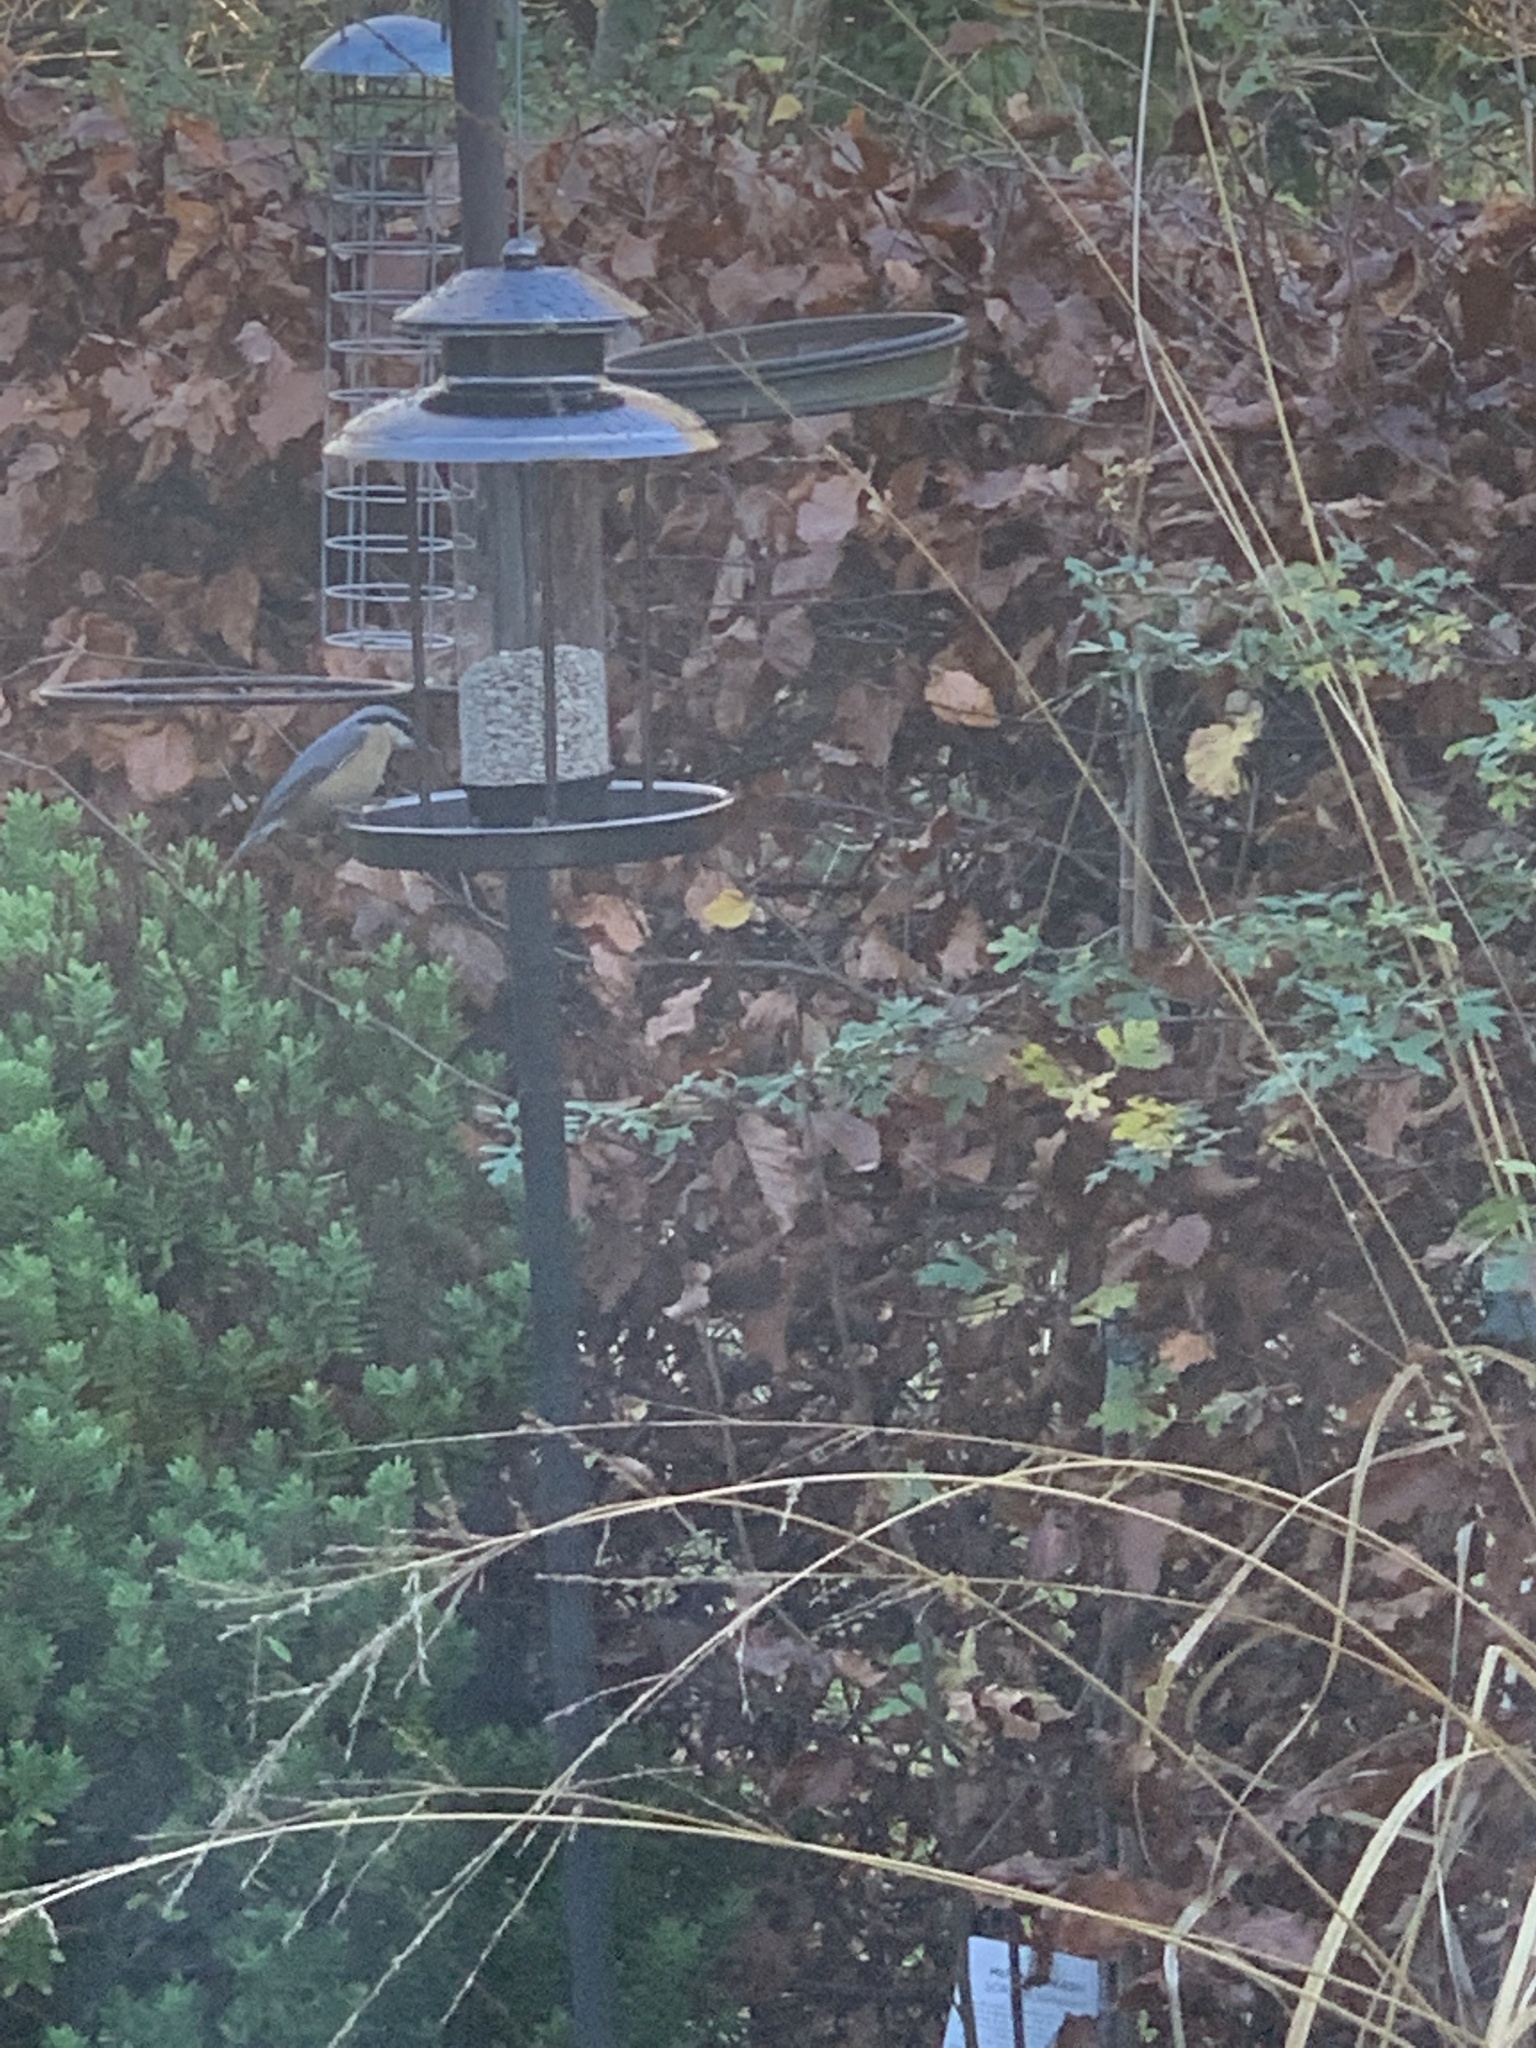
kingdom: Animalia
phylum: Chordata
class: Aves
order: Passeriformes
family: Sittidae
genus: Sitta
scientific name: Sitta europaea
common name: Eurasian nuthatch
